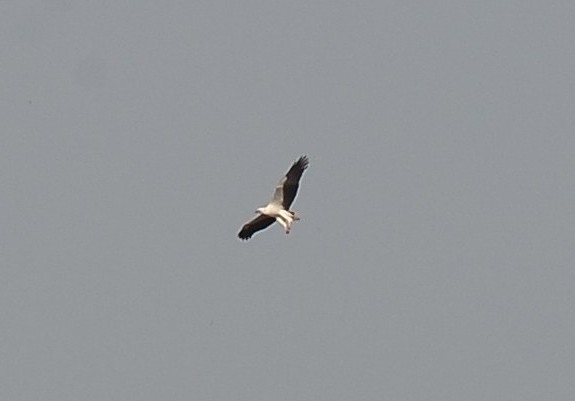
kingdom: Animalia
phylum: Chordata
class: Aves
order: Accipitriformes
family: Accipitridae
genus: Haliaeetus
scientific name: Haliaeetus leucogaster
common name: White-bellied sea eagle
